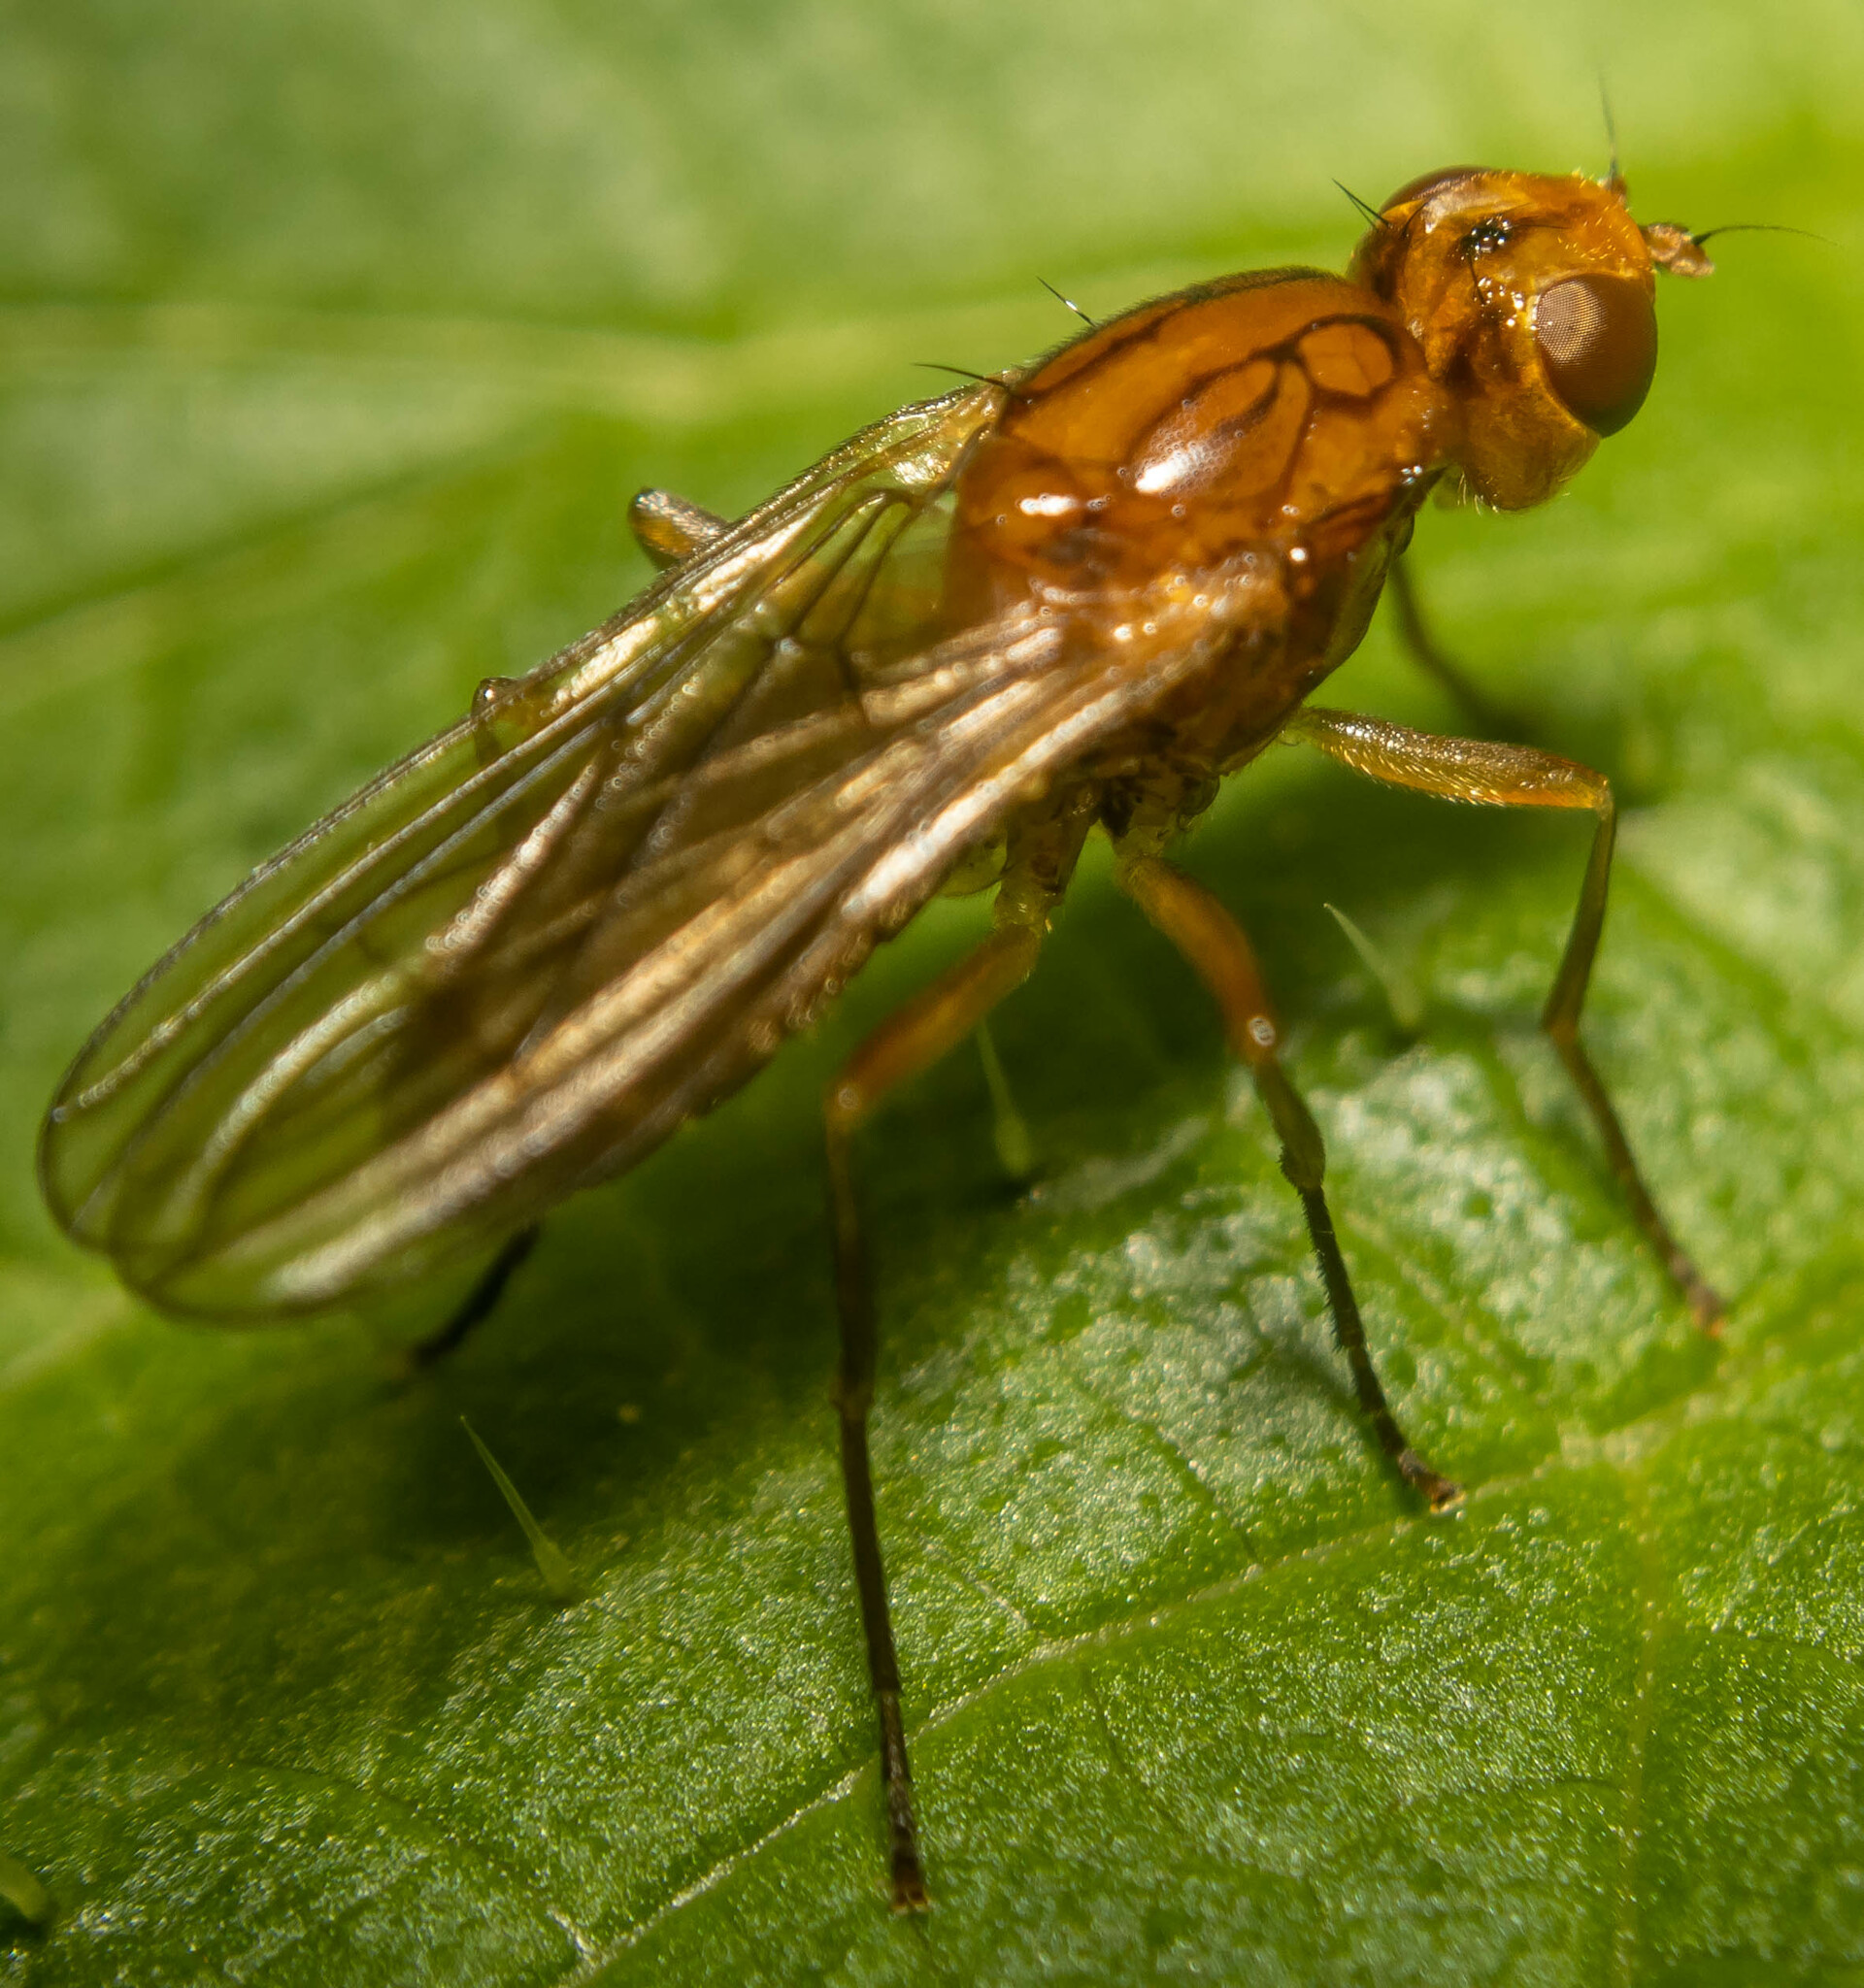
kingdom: Animalia
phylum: Arthropoda
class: Insecta
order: Diptera
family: Psilidae
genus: Psila
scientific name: Psila fimetaria
